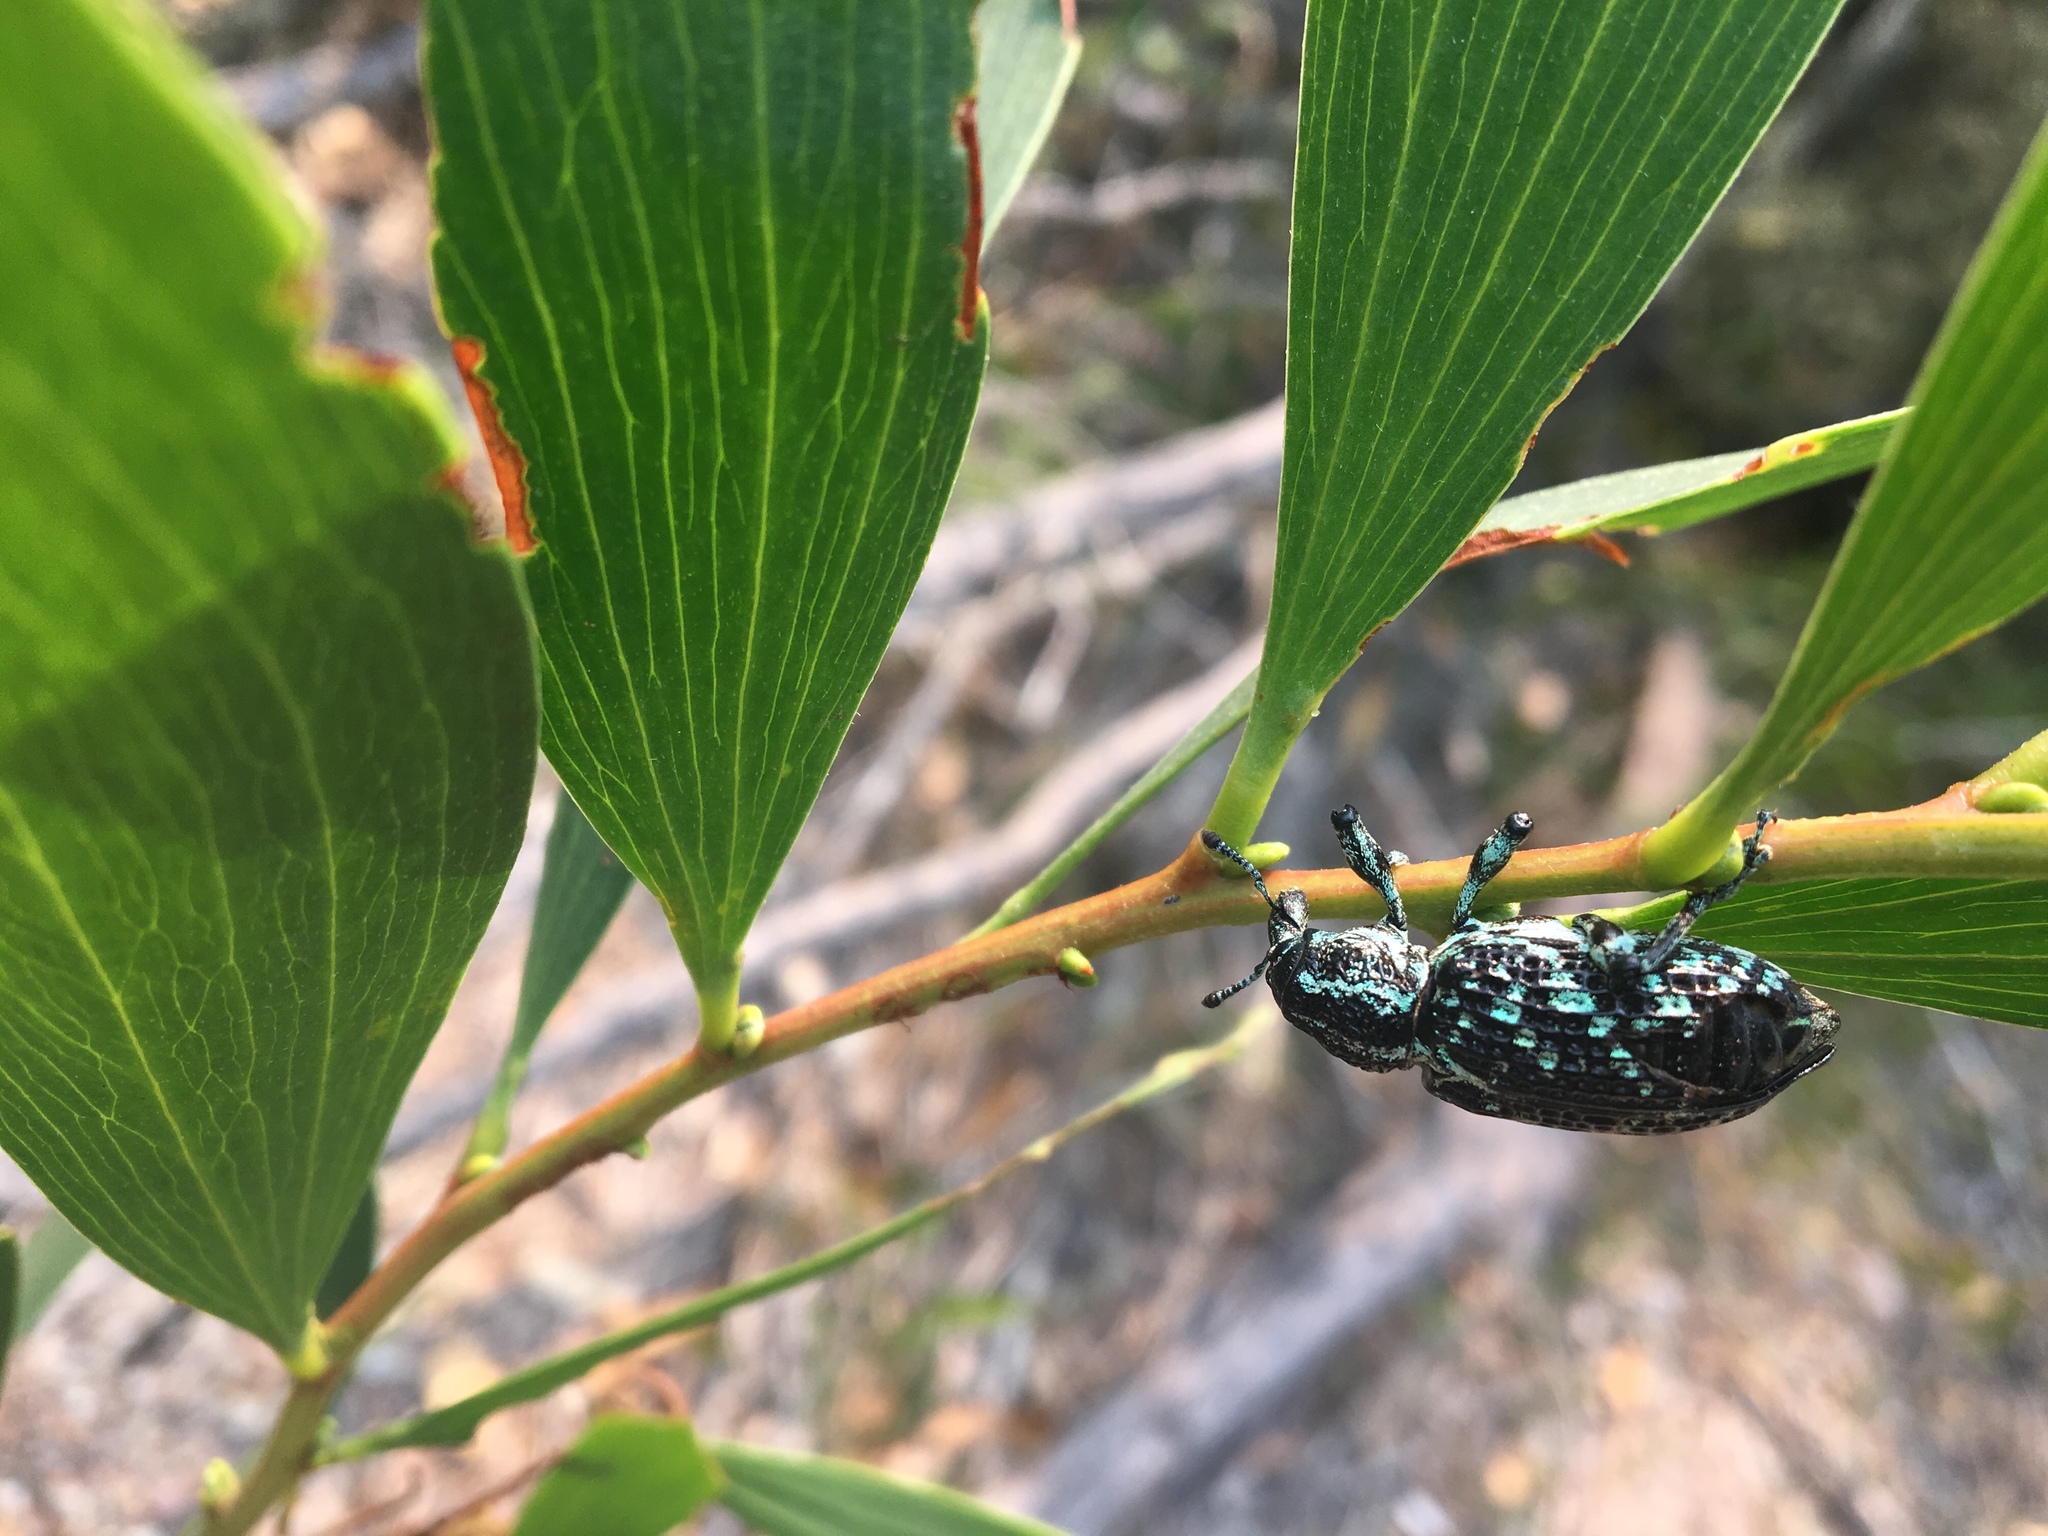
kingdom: Animalia
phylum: Arthropoda
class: Insecta
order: Coleoptera
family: Curculionidae
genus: Chrysolopus
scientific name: Chrysolopus spectabilis
